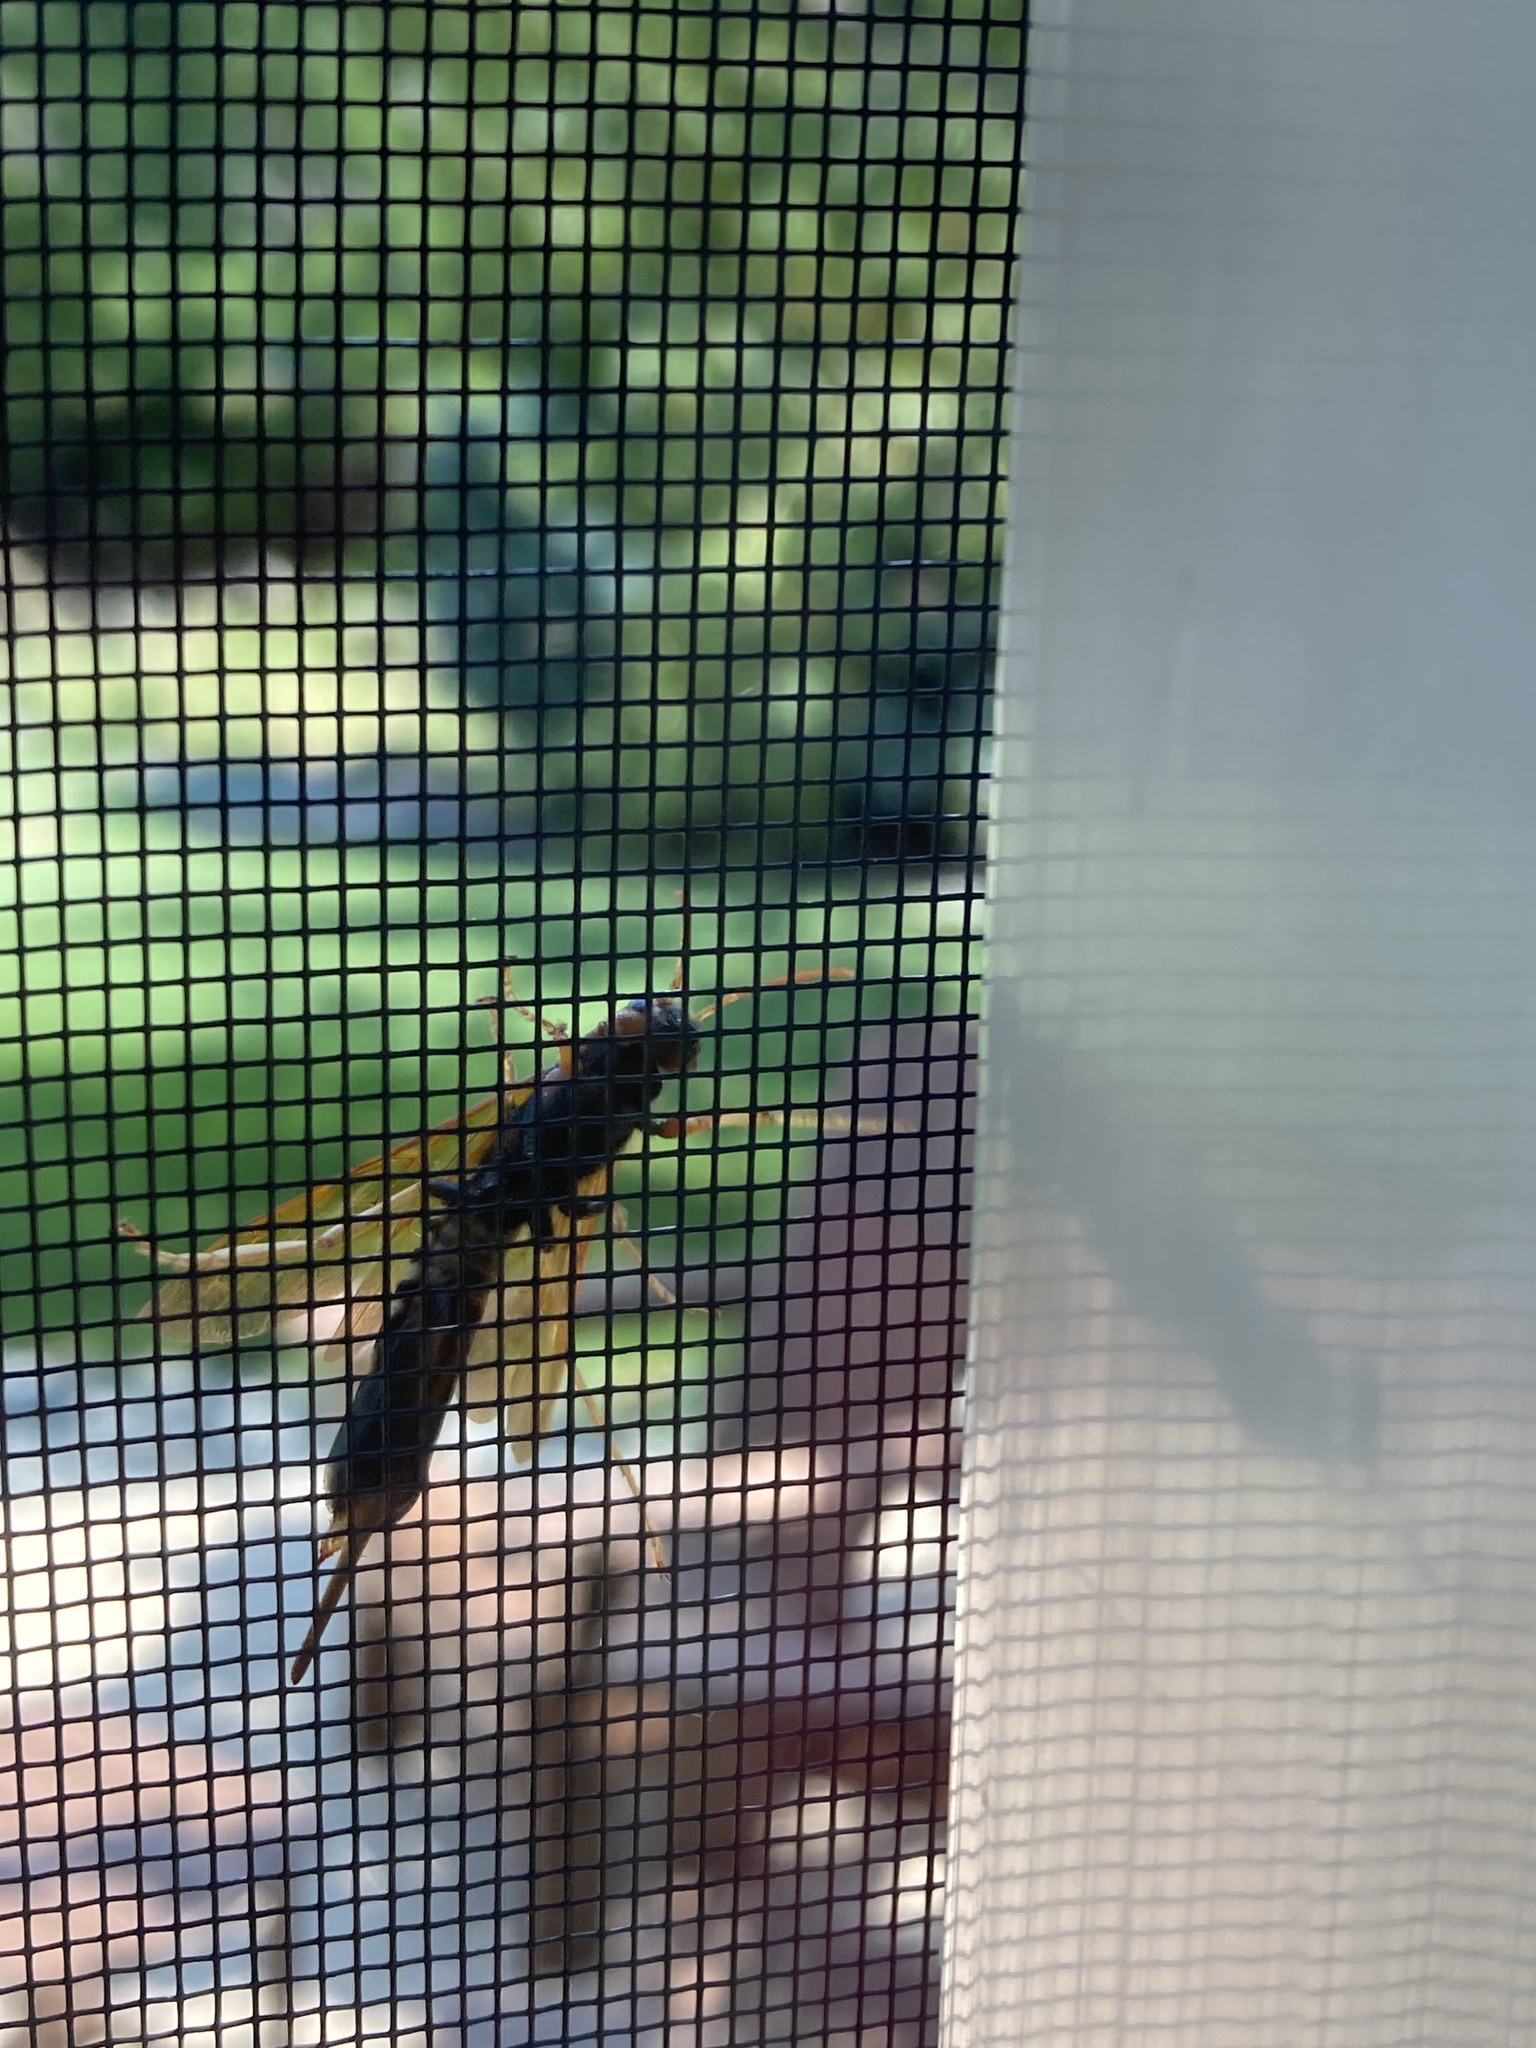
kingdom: Animalia
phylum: Arthropoda
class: Insecta
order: Hymenoptera
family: Siricidae
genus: Tremex
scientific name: Tremex columba
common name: Wasp
